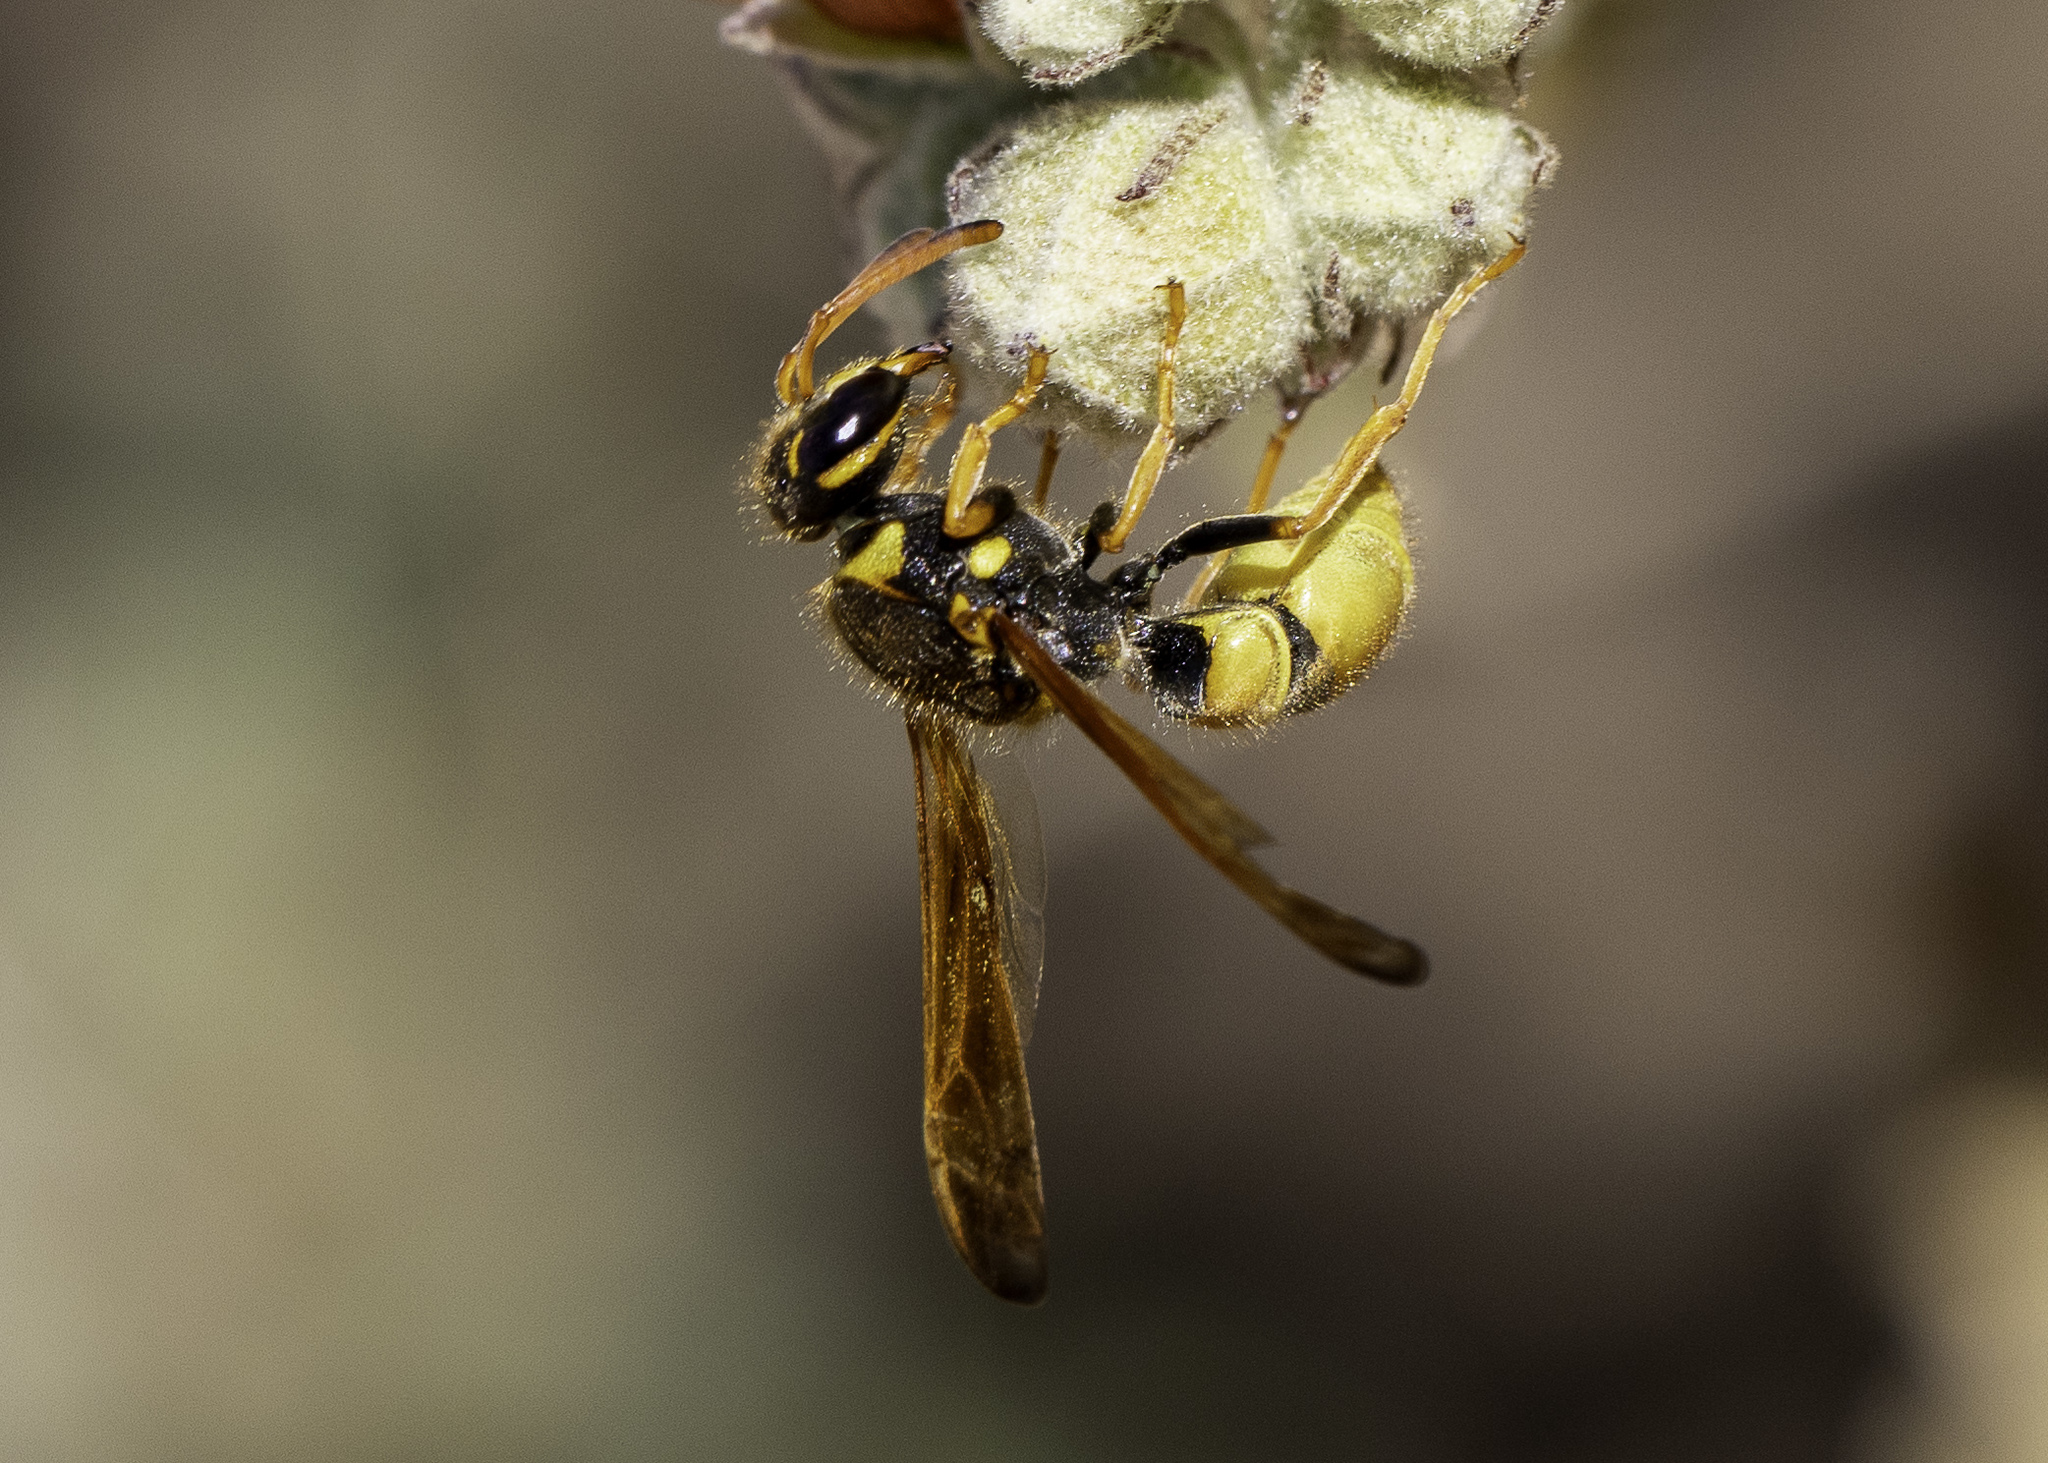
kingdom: Animalia
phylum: Arthropoda
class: Insecta
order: Hymenoptera
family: Vespidae
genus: Ancistrocerus
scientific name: Ancistrocerus tuberculocephalus
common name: Vespid wasp
